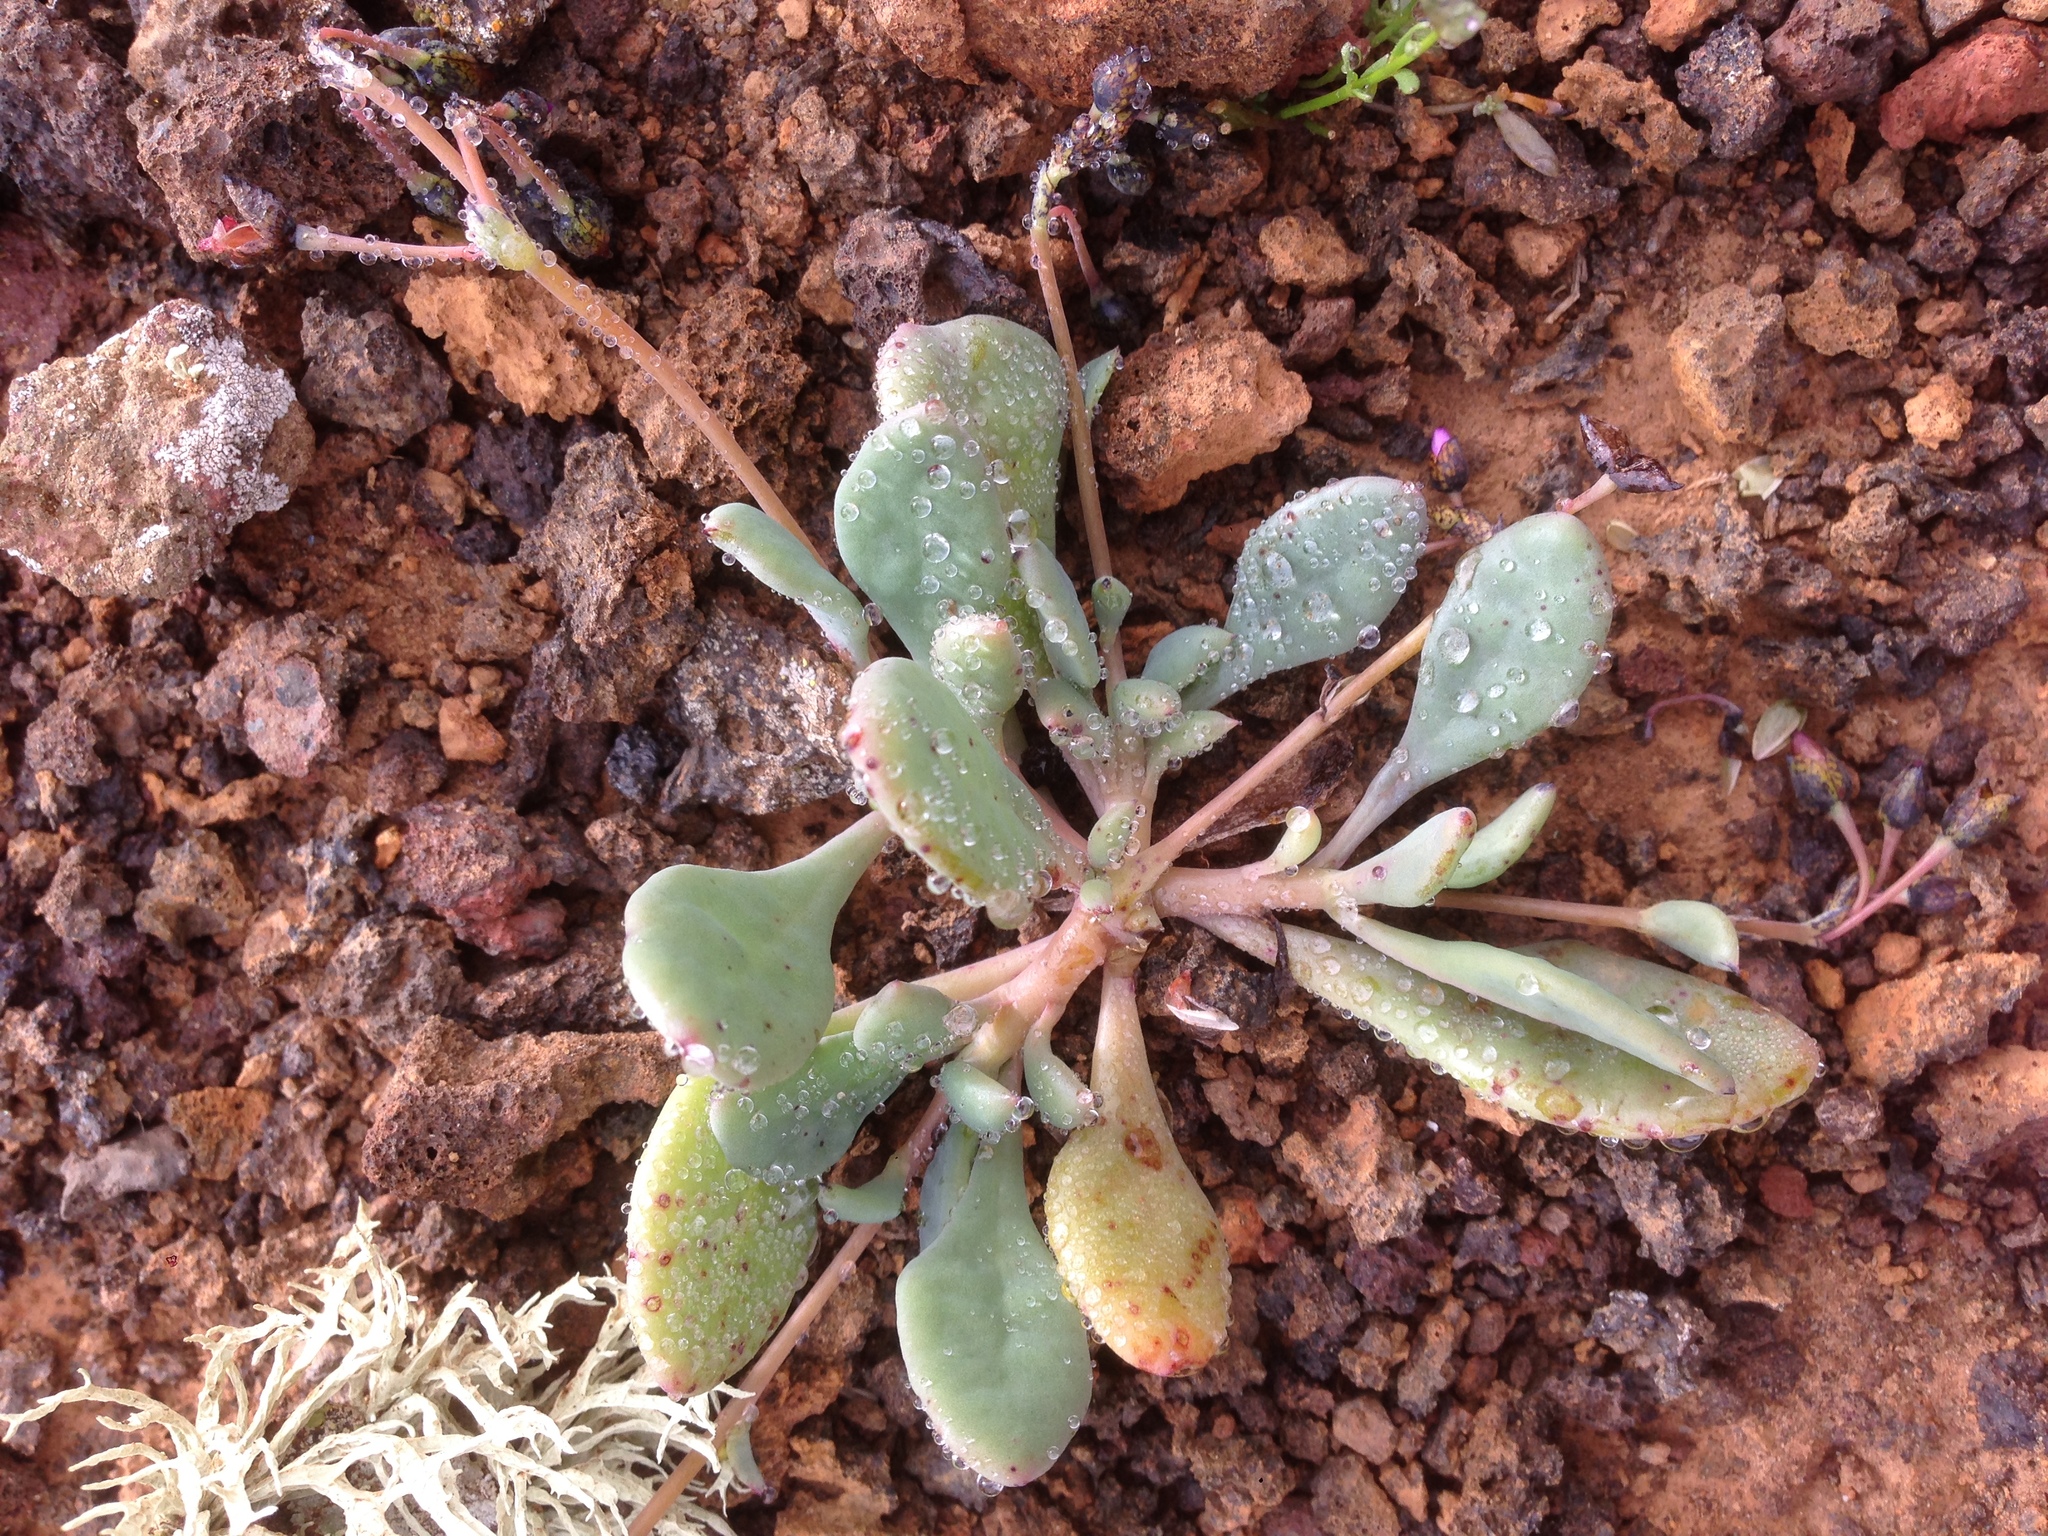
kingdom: Plantae
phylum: Tracheophyta
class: Magnoliopsida
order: Caryophyllales
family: Montiaceae
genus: Cistanthe
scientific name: Cistanthe maritima
